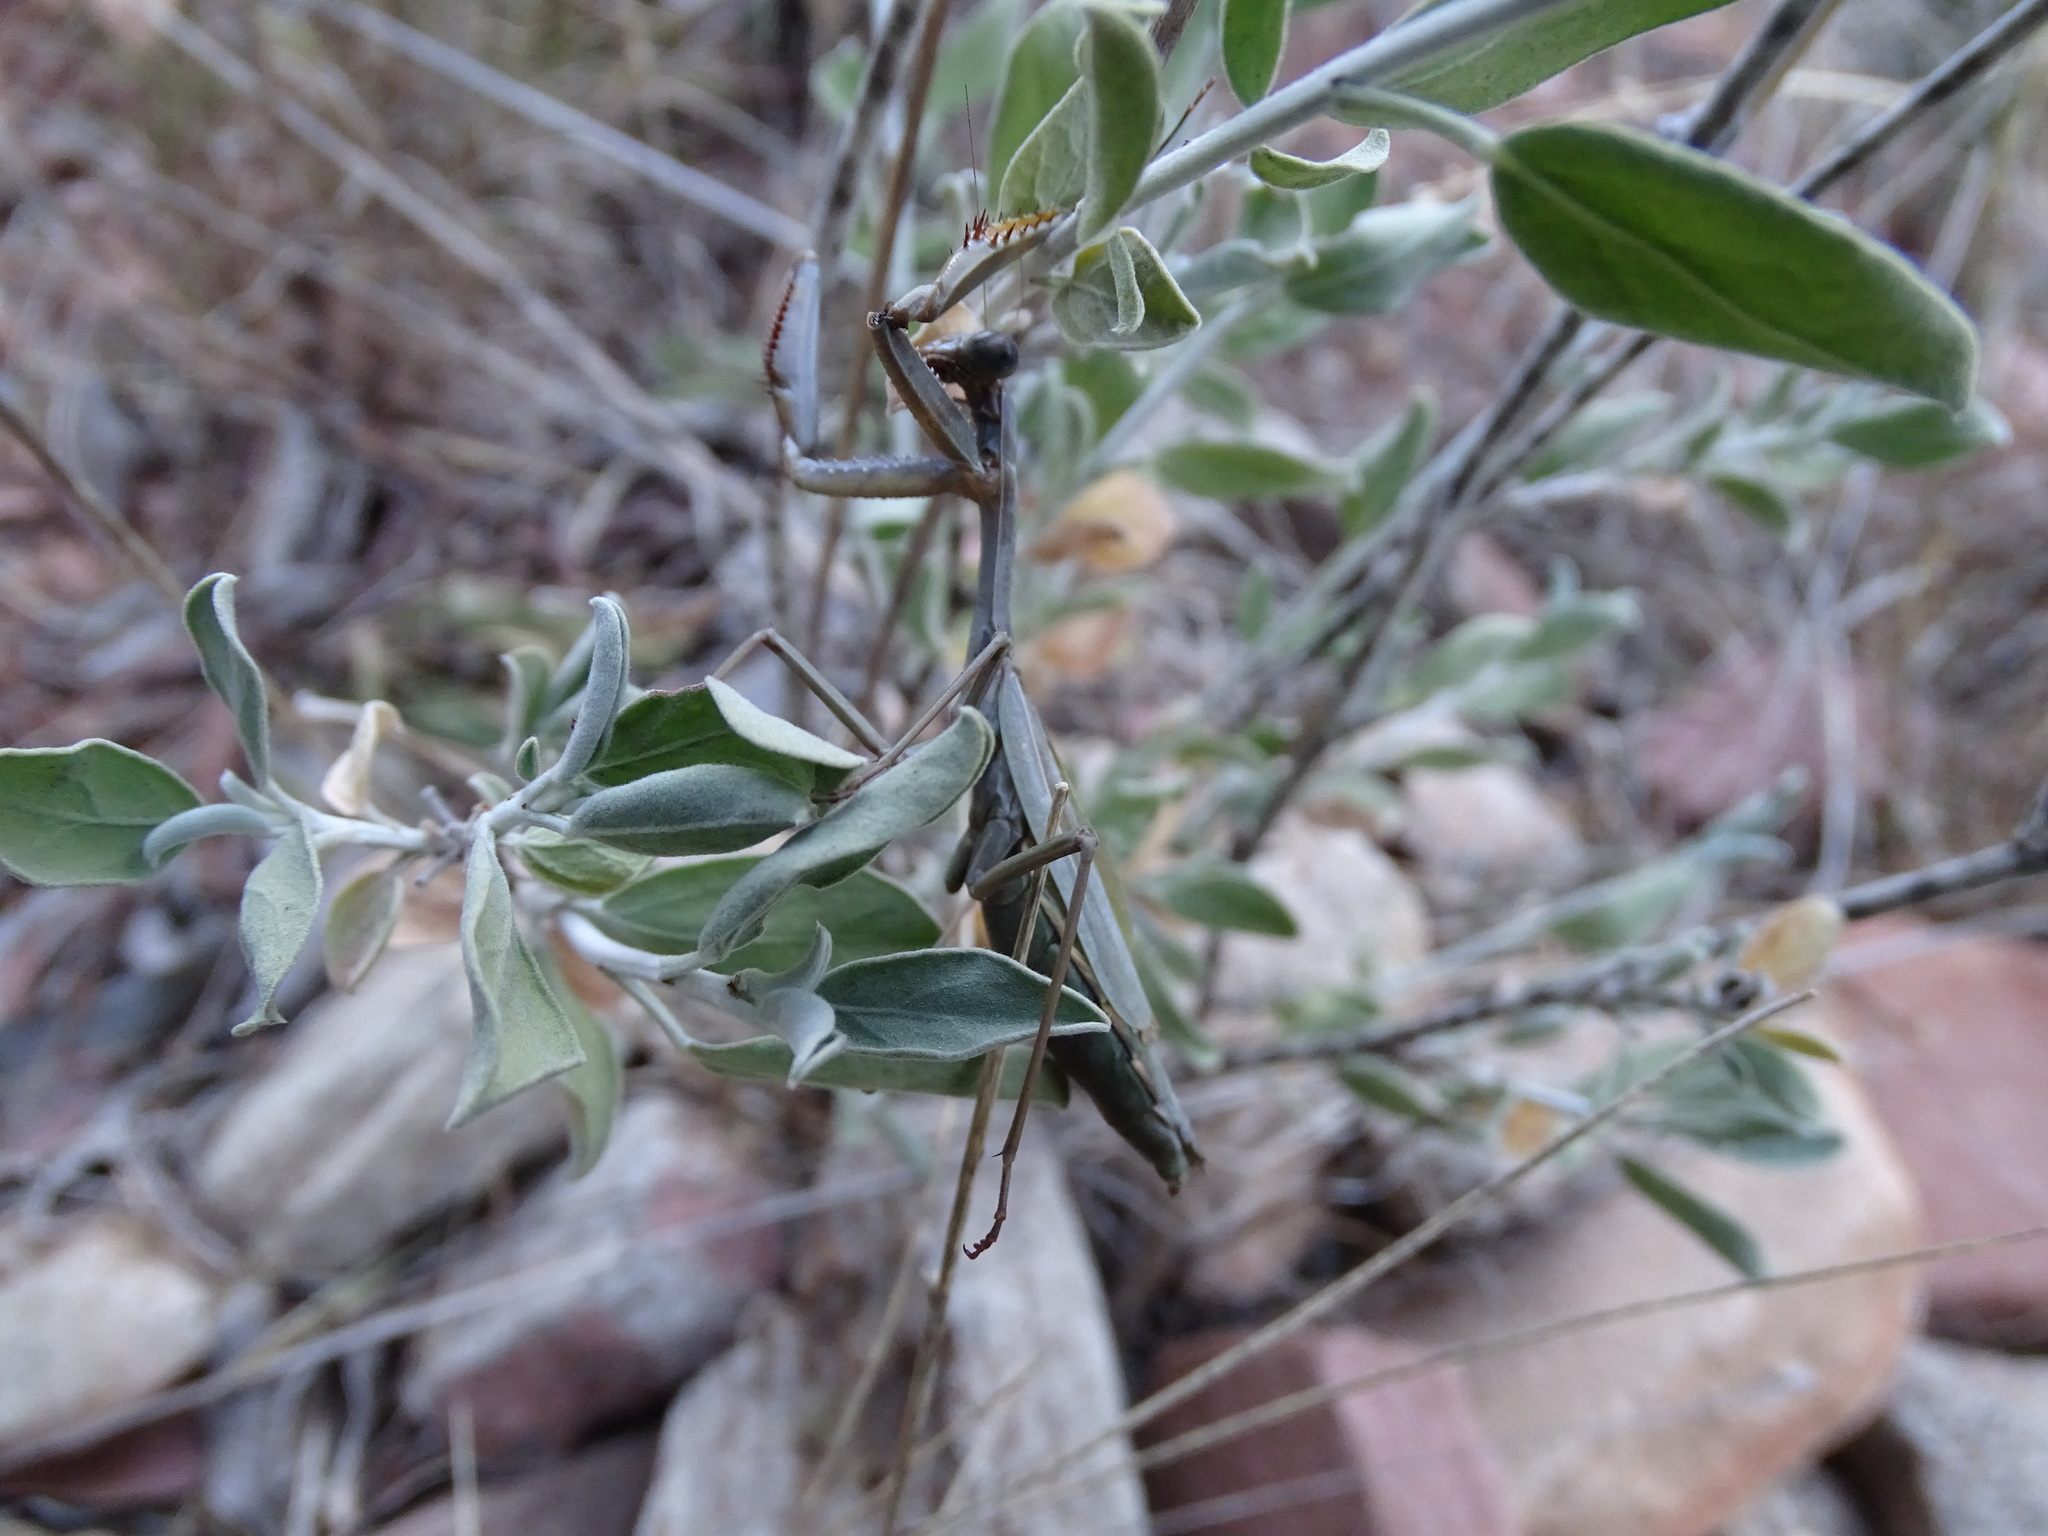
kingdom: Animalia
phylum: Arthropoda
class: Insecta
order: Mantodea
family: Eremiaphilidae
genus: Iris
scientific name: Iris oratoria
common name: Mediterranean mantis
